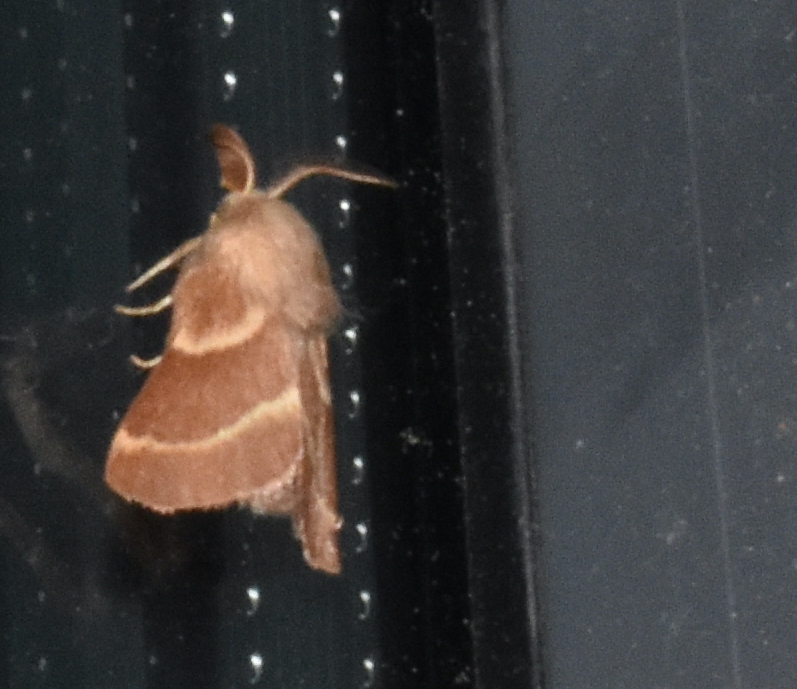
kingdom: Animalia
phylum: Arthropoda
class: Insecta
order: Lepidoptera
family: Lasiocampidae
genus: Malacosoma
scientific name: Malacosoma californica
